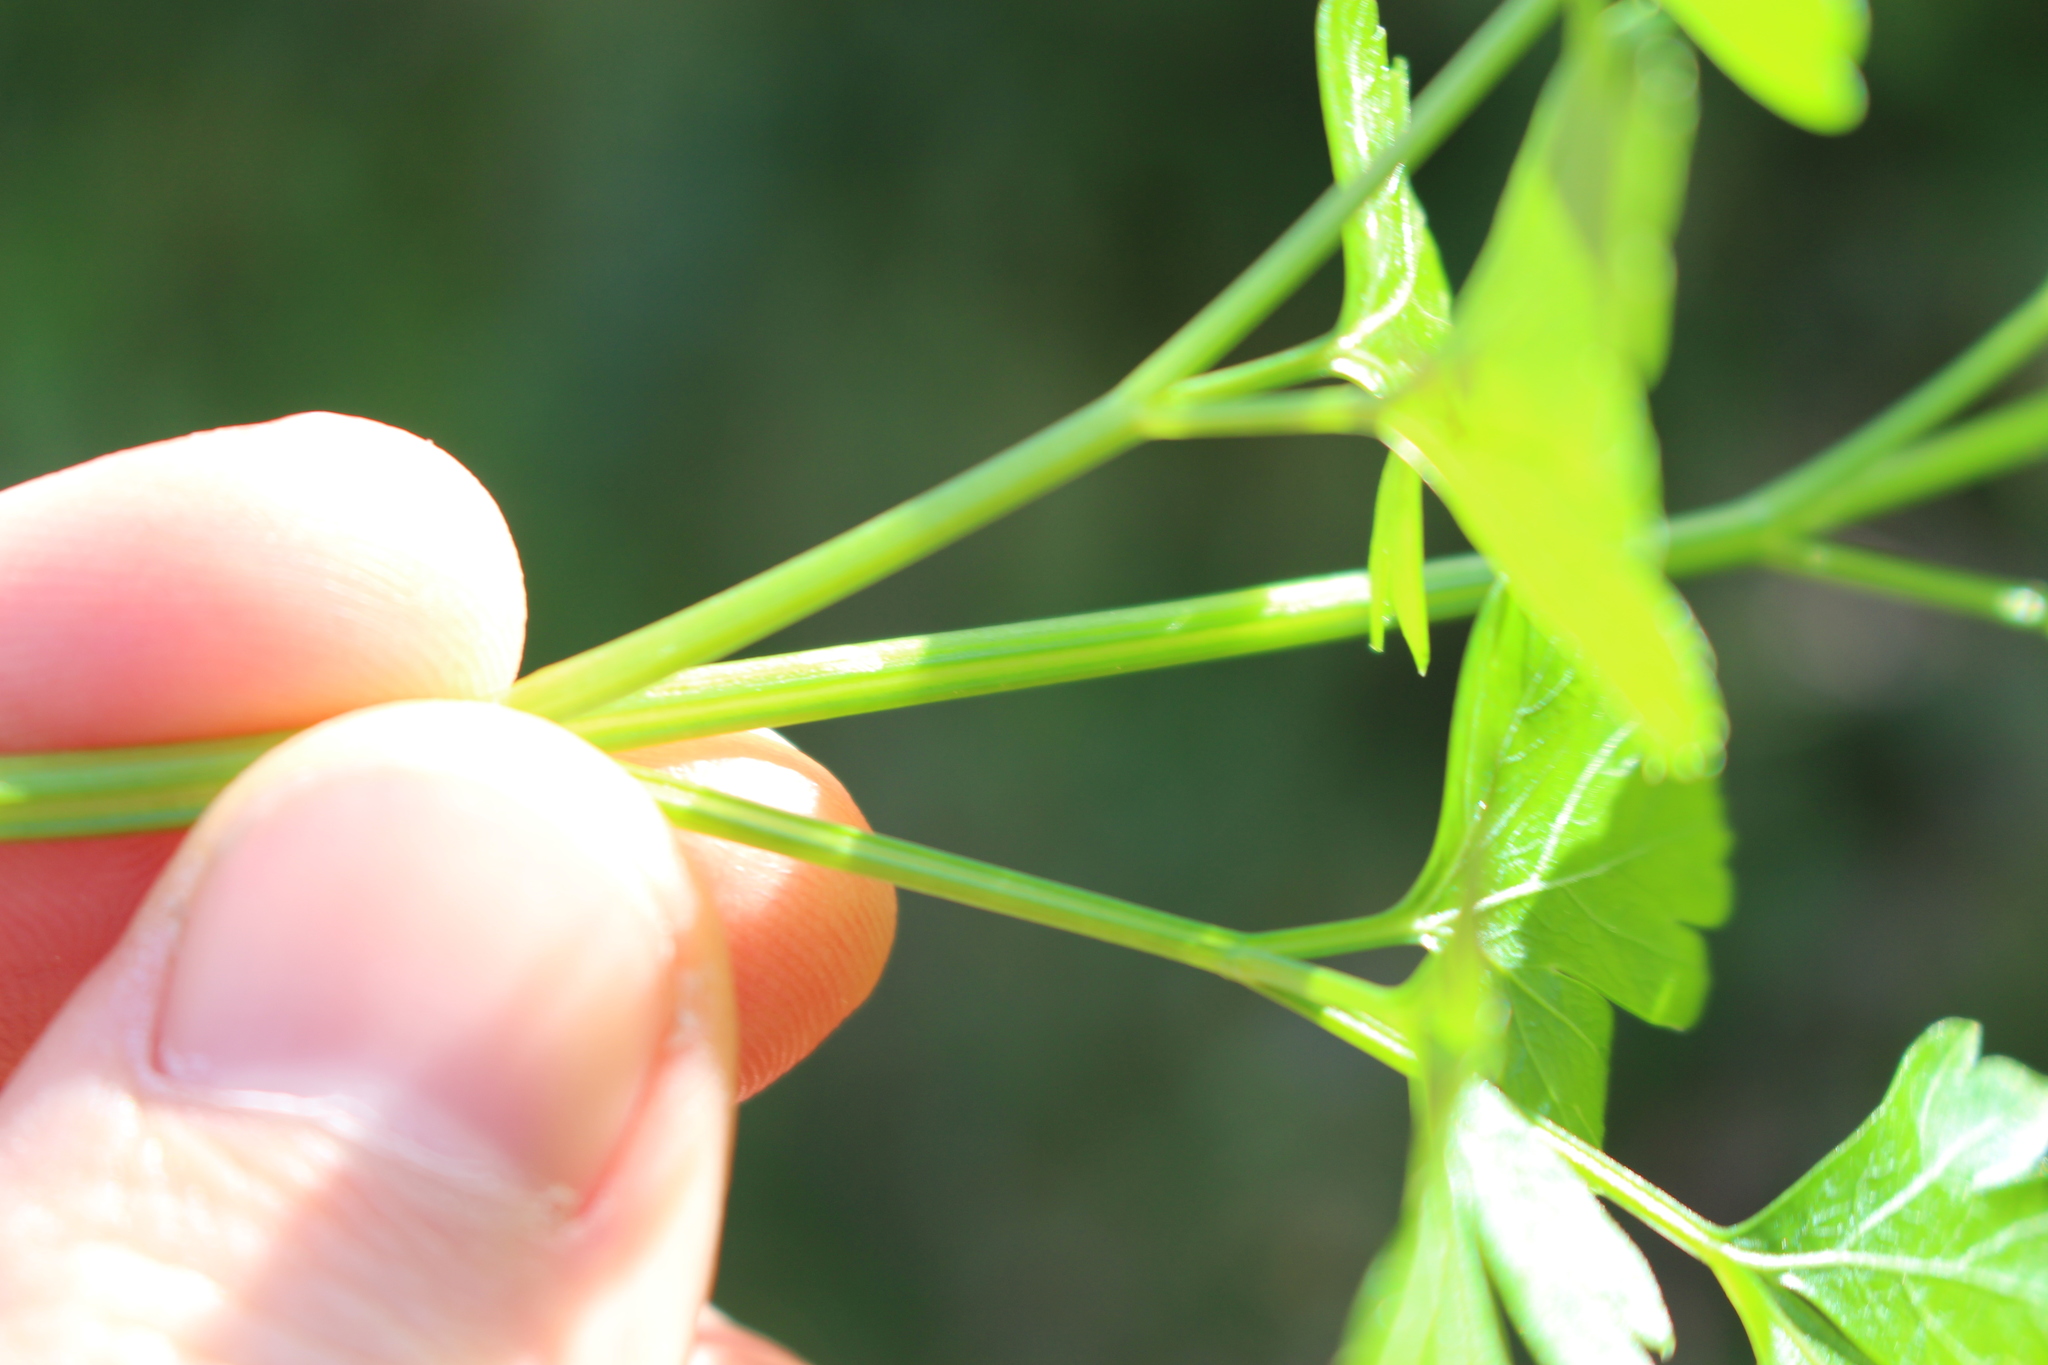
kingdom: Plantae
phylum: Tracheophyta
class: Magnoliopsida
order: Apiales
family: Apiaceae
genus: Petroselinum
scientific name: Petroselinum crispum
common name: Parsley
